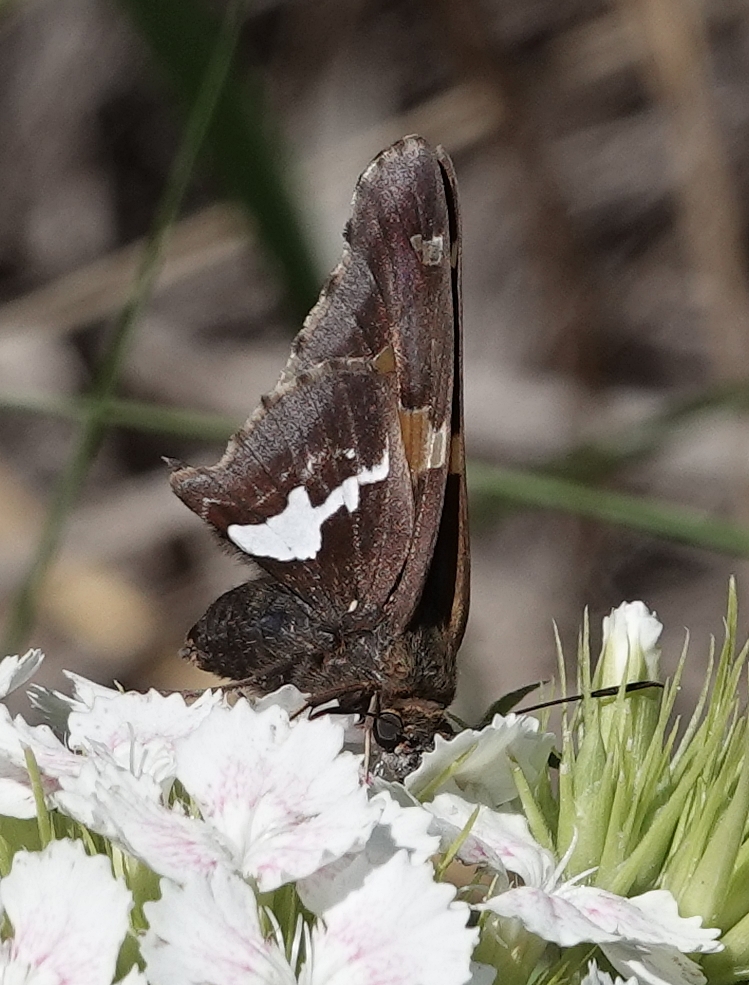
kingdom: Animalia
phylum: Arthropoda
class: Insecta
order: Lepidoptera
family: Hesperiidae
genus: Epargyreus
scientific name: Epargyreus clarus
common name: Silver-spotted skipper
